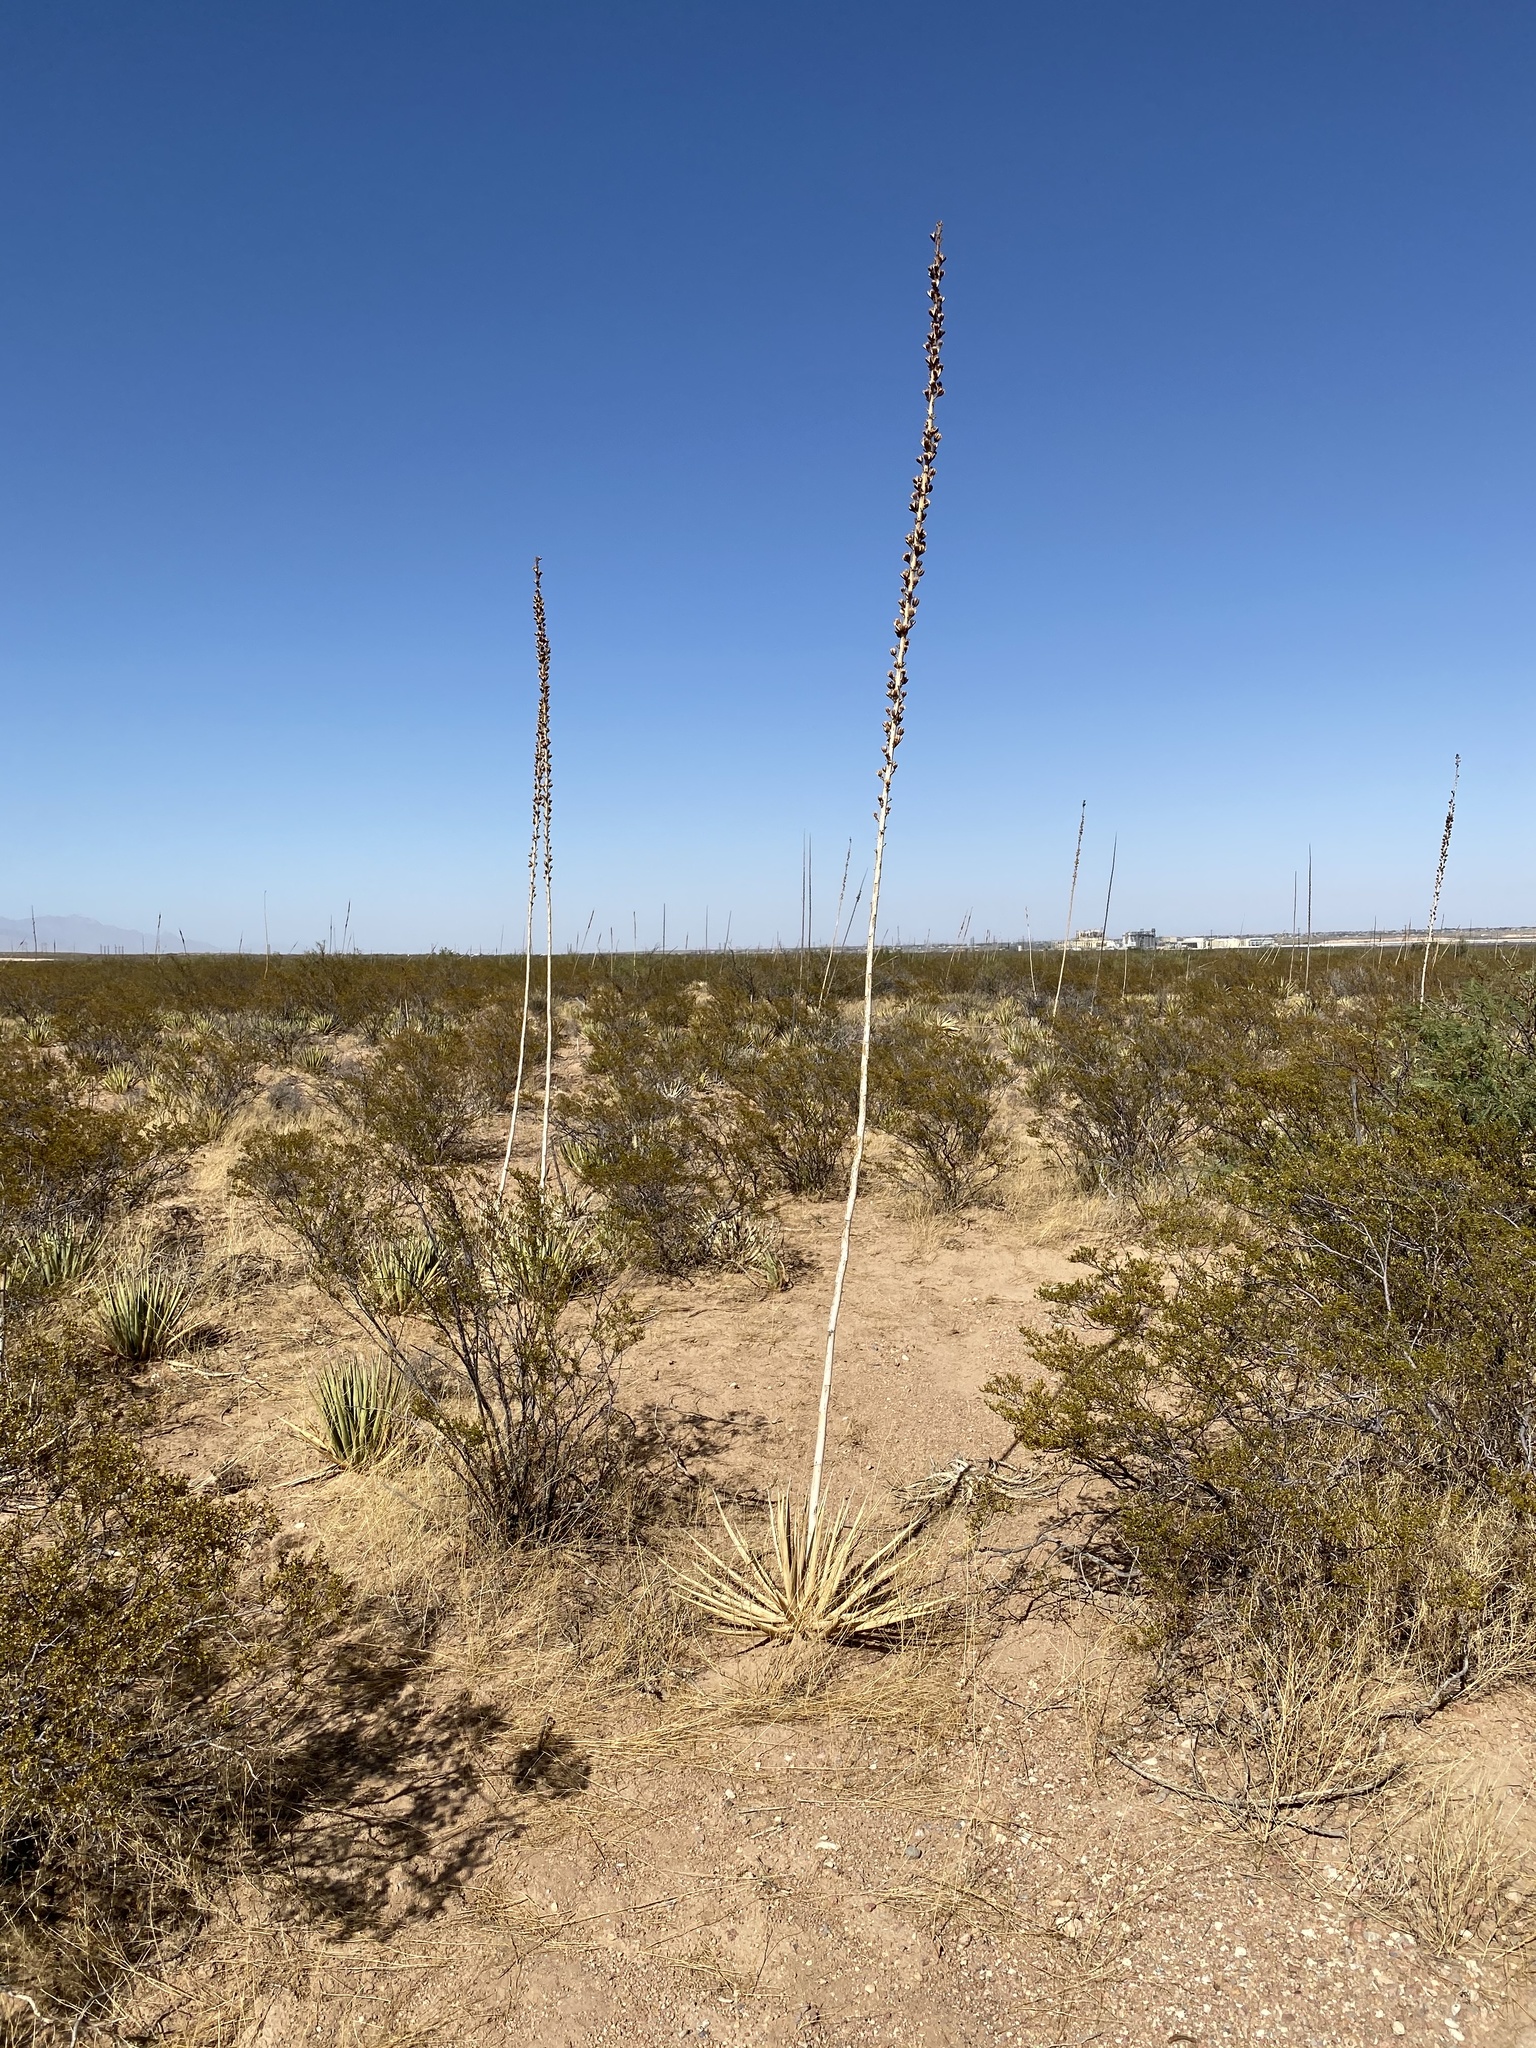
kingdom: Plantae
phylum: Tracheophyta
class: Liliopsida
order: Asparagales
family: Asparagaceae
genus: Agave
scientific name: Agave lechuguilla
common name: Lecheguilla agave
